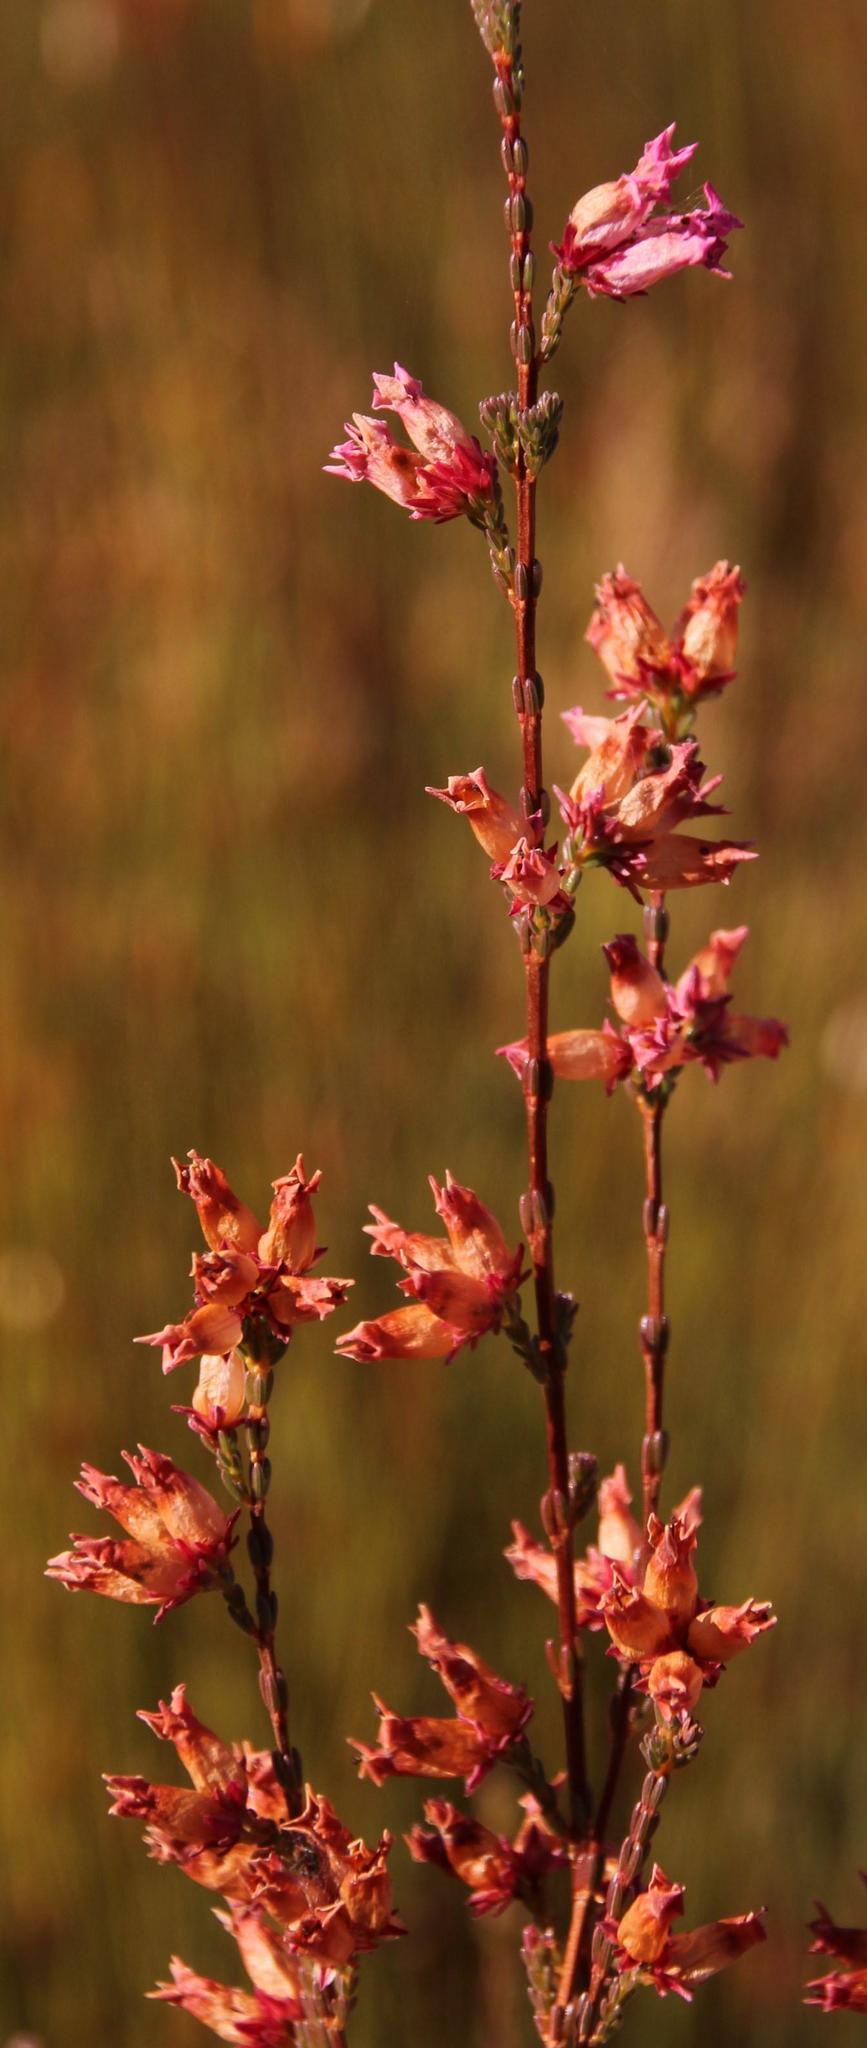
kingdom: Plantae
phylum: Tracheophyta
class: Magnoliopsida
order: Ericales
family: Ericaceae
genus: Erica
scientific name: Erica daphniflora
